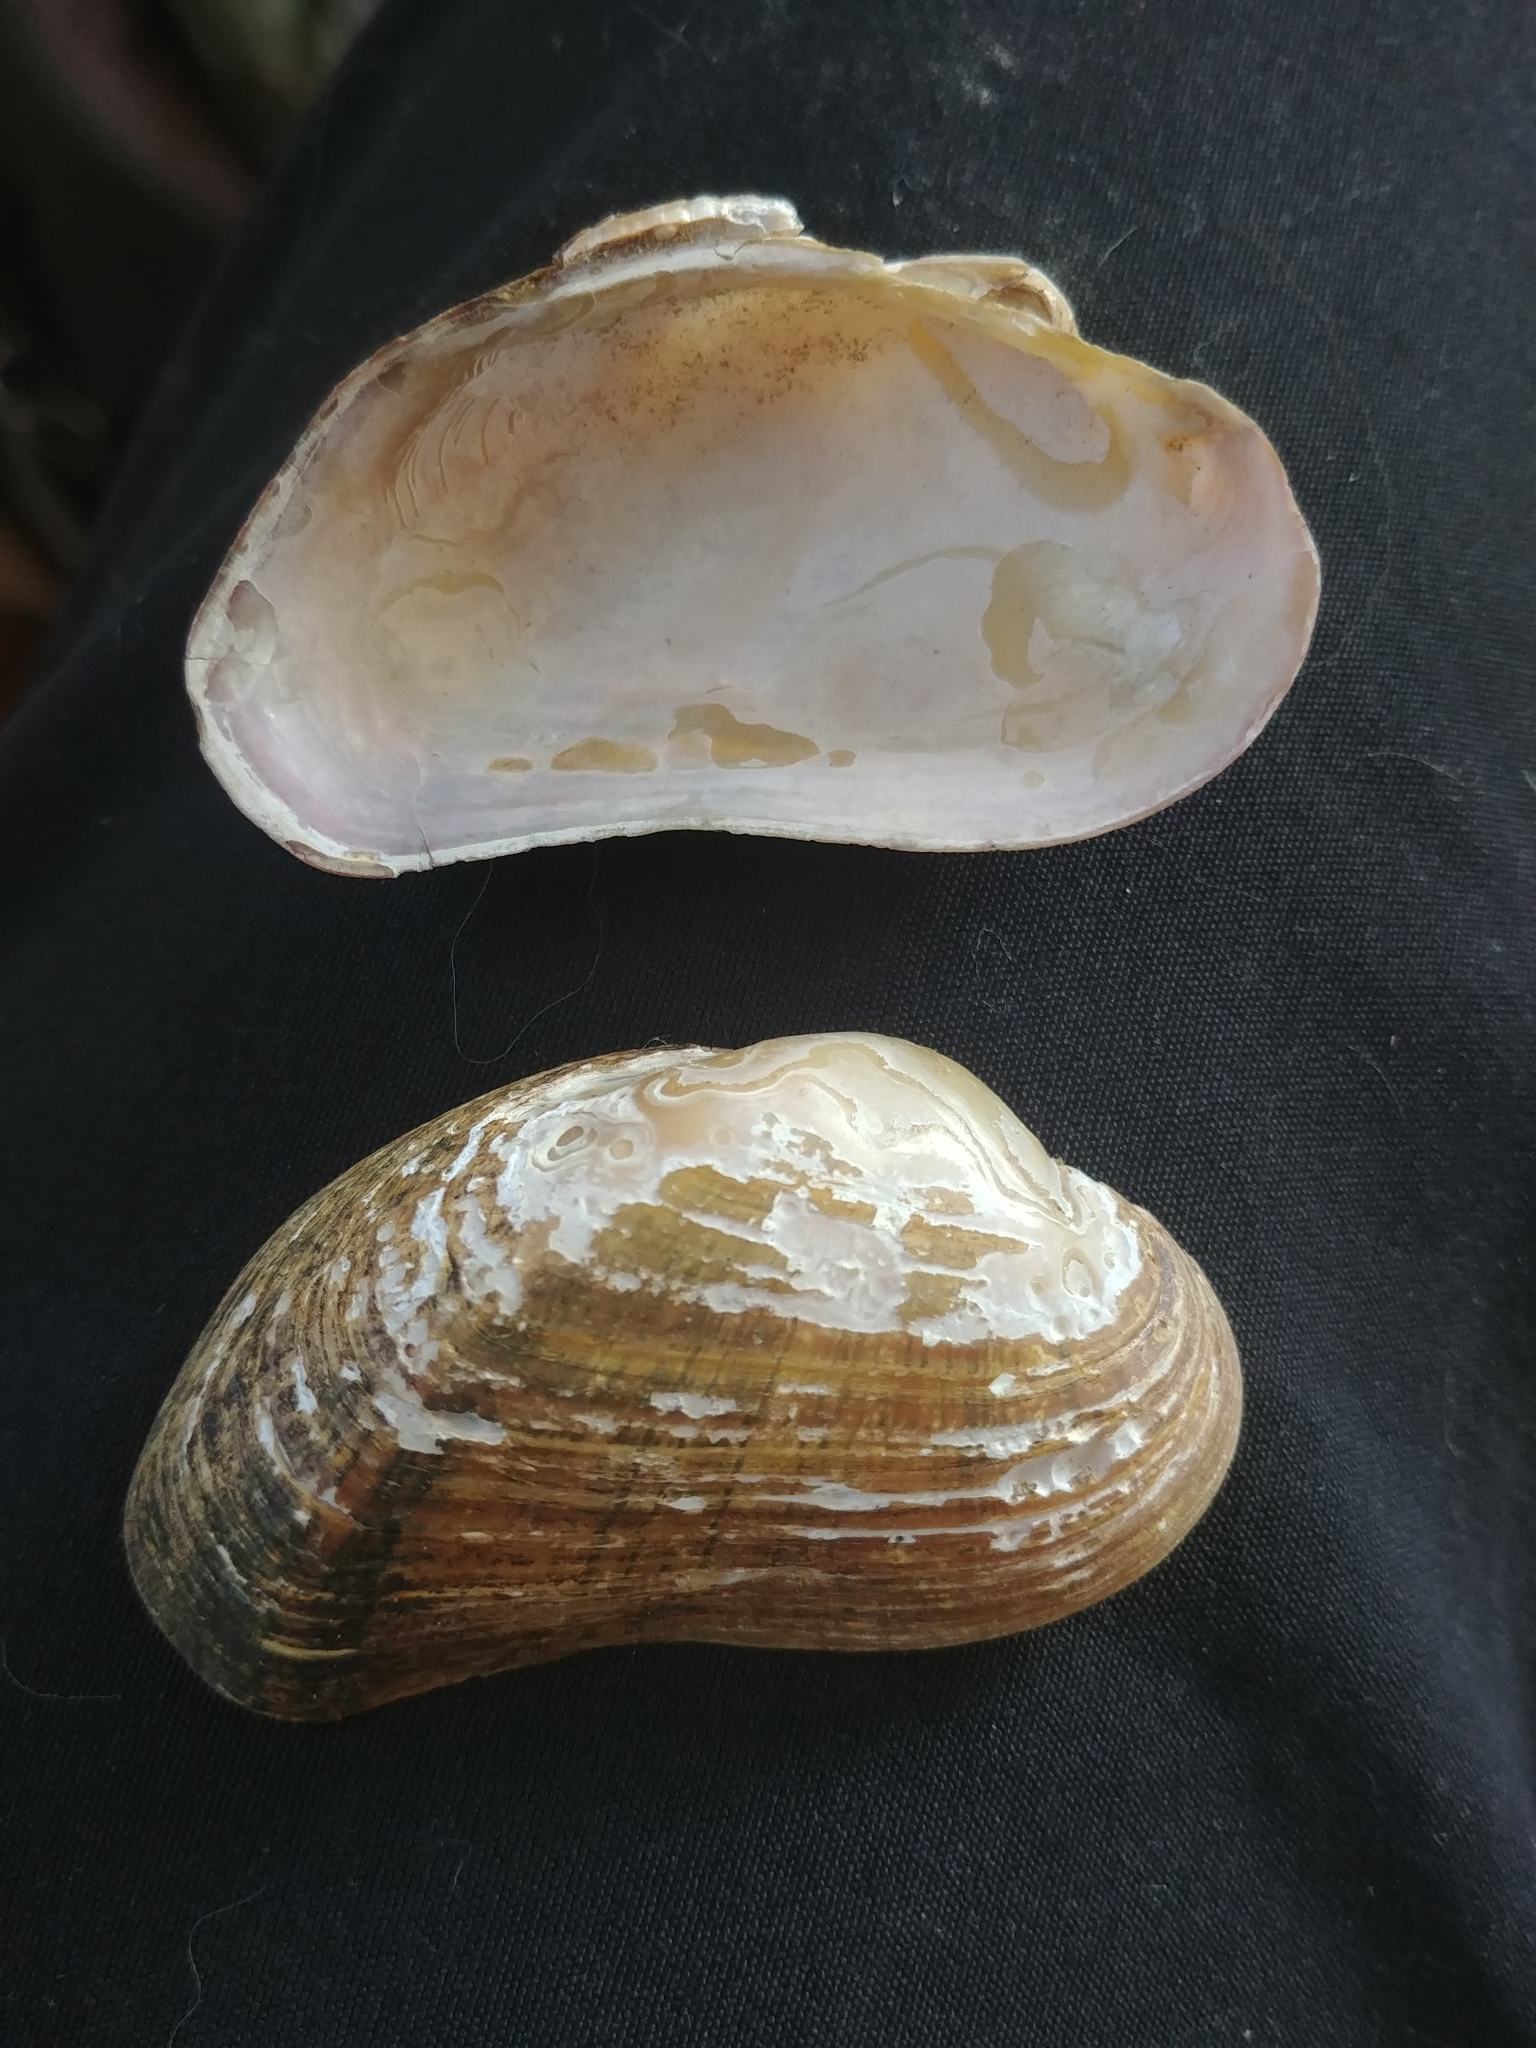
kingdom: Animalia
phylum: Mollusca
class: Bivalvia
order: Unionida
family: Unionidae
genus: Alasmidonta
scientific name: Alasmidonta varicosa
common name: Brook floater
